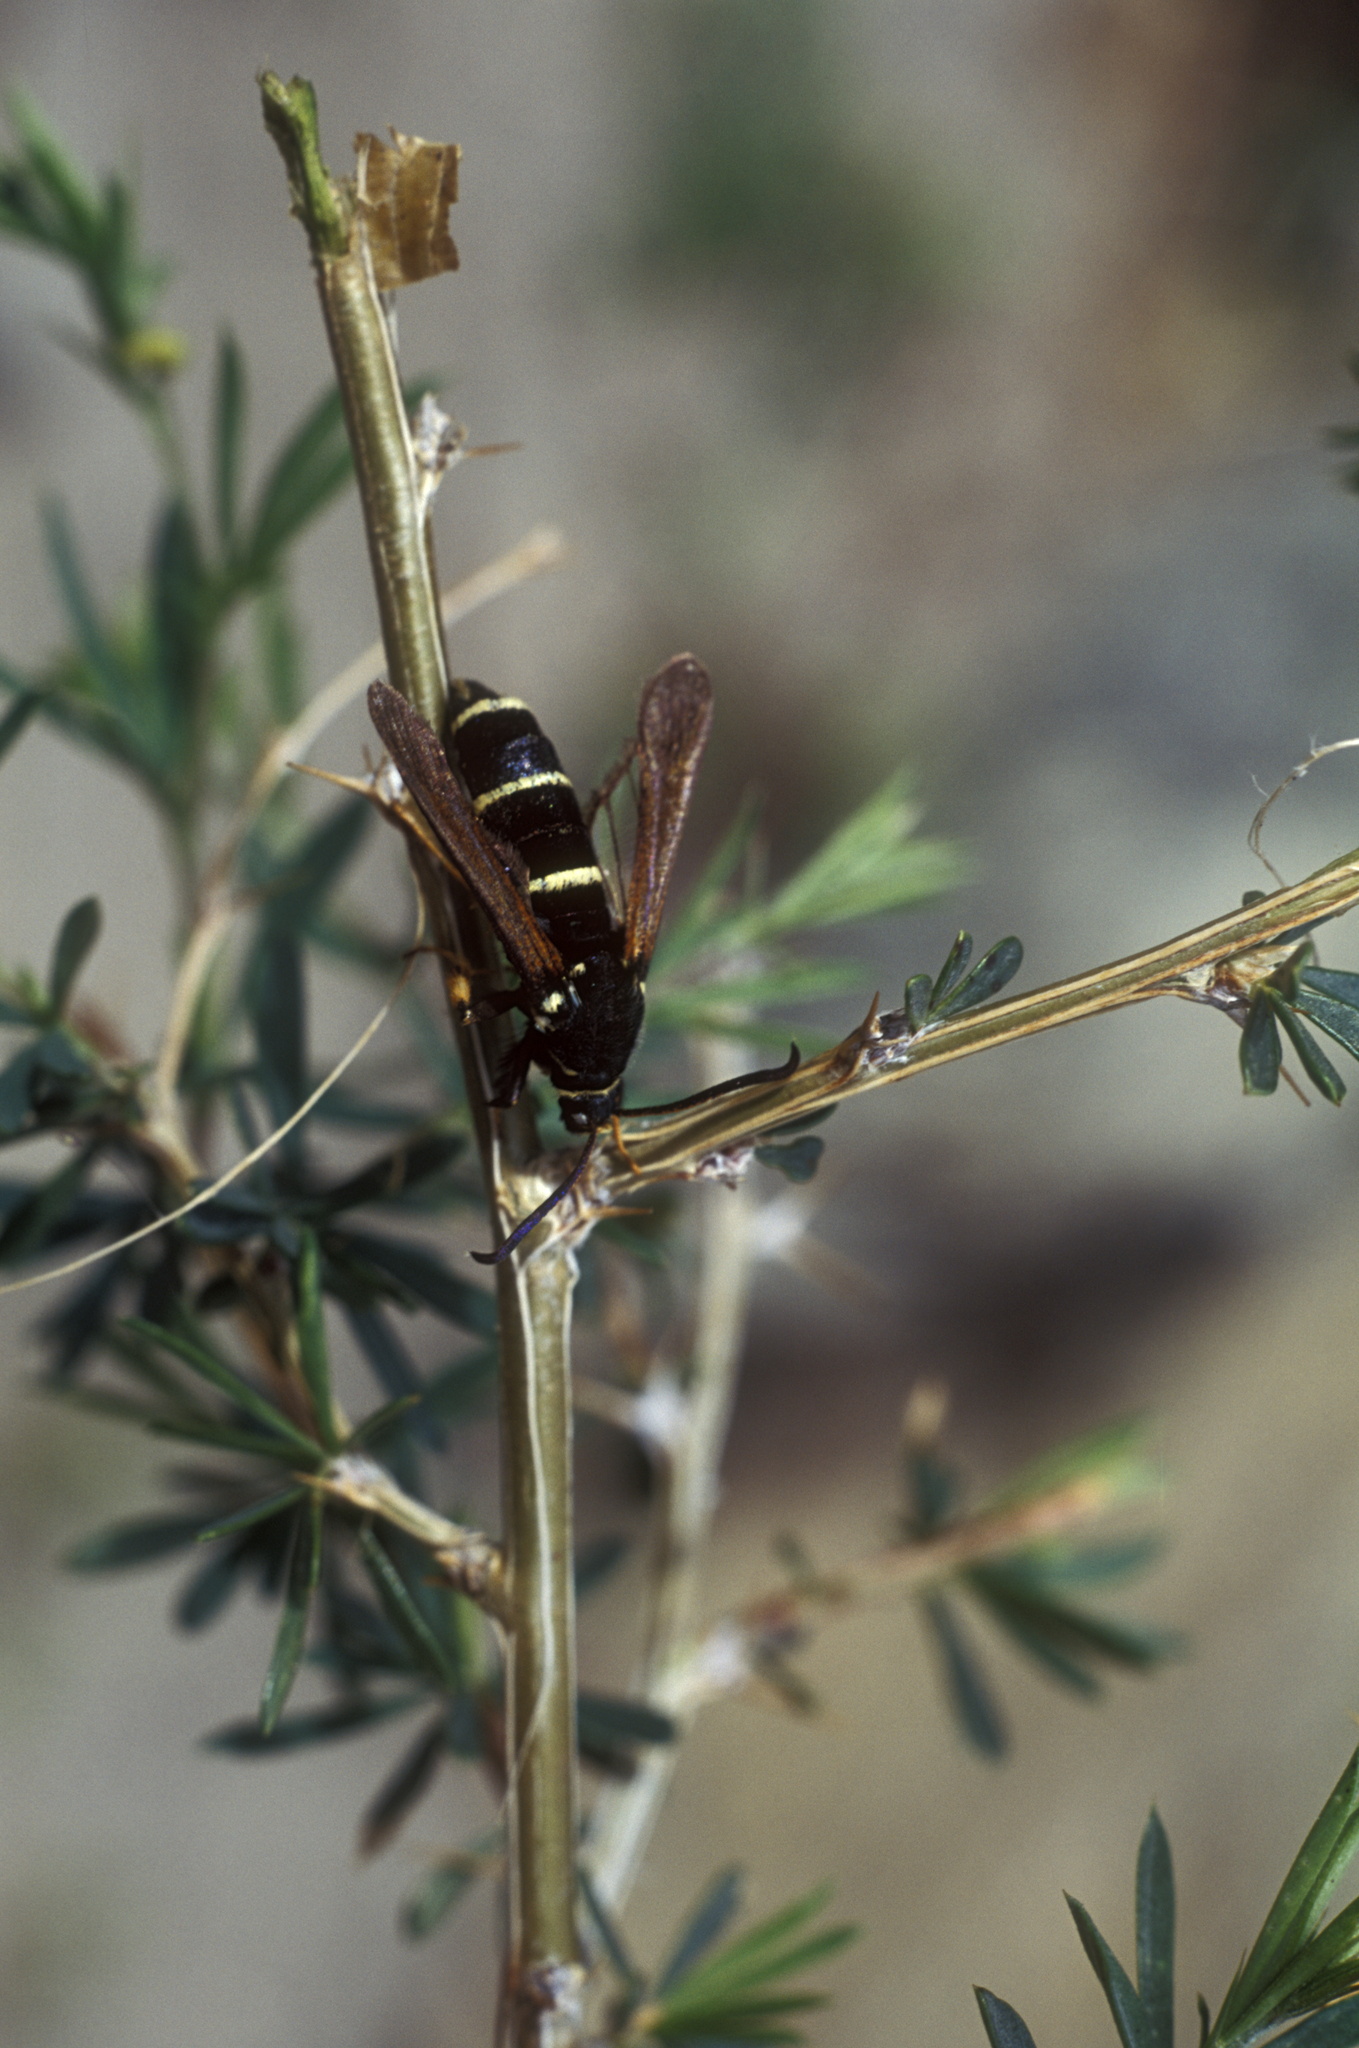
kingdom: Plantae
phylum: Tracheophyta
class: Magnoliopsida
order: Fabales
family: Fabaceae
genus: Caragana
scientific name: Caragana pygmaea
